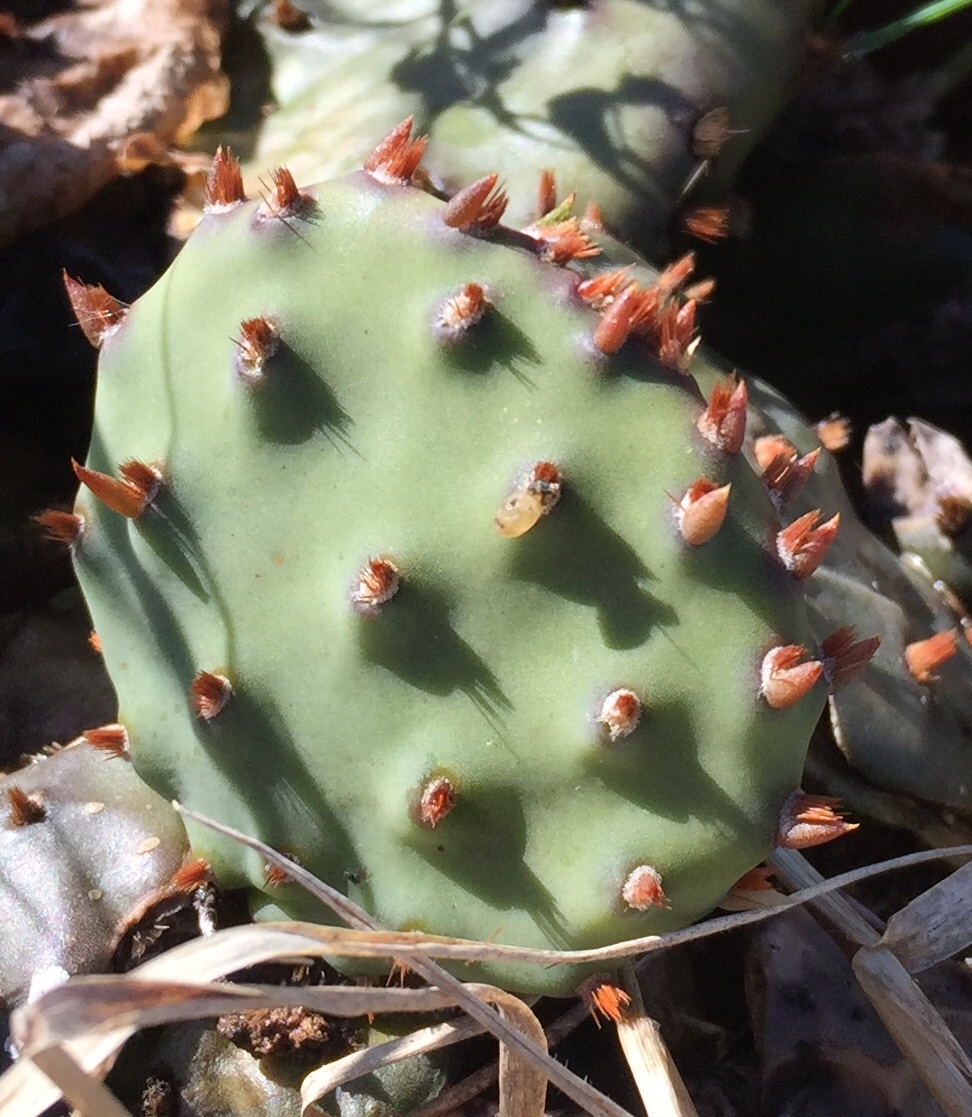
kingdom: Plantae
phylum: Tracheophyta
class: Magnoliopsida
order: Caryophyllales
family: Cactaceae
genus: Opuntia
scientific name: Opuntia humifusa
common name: Eastern prickly-pear
